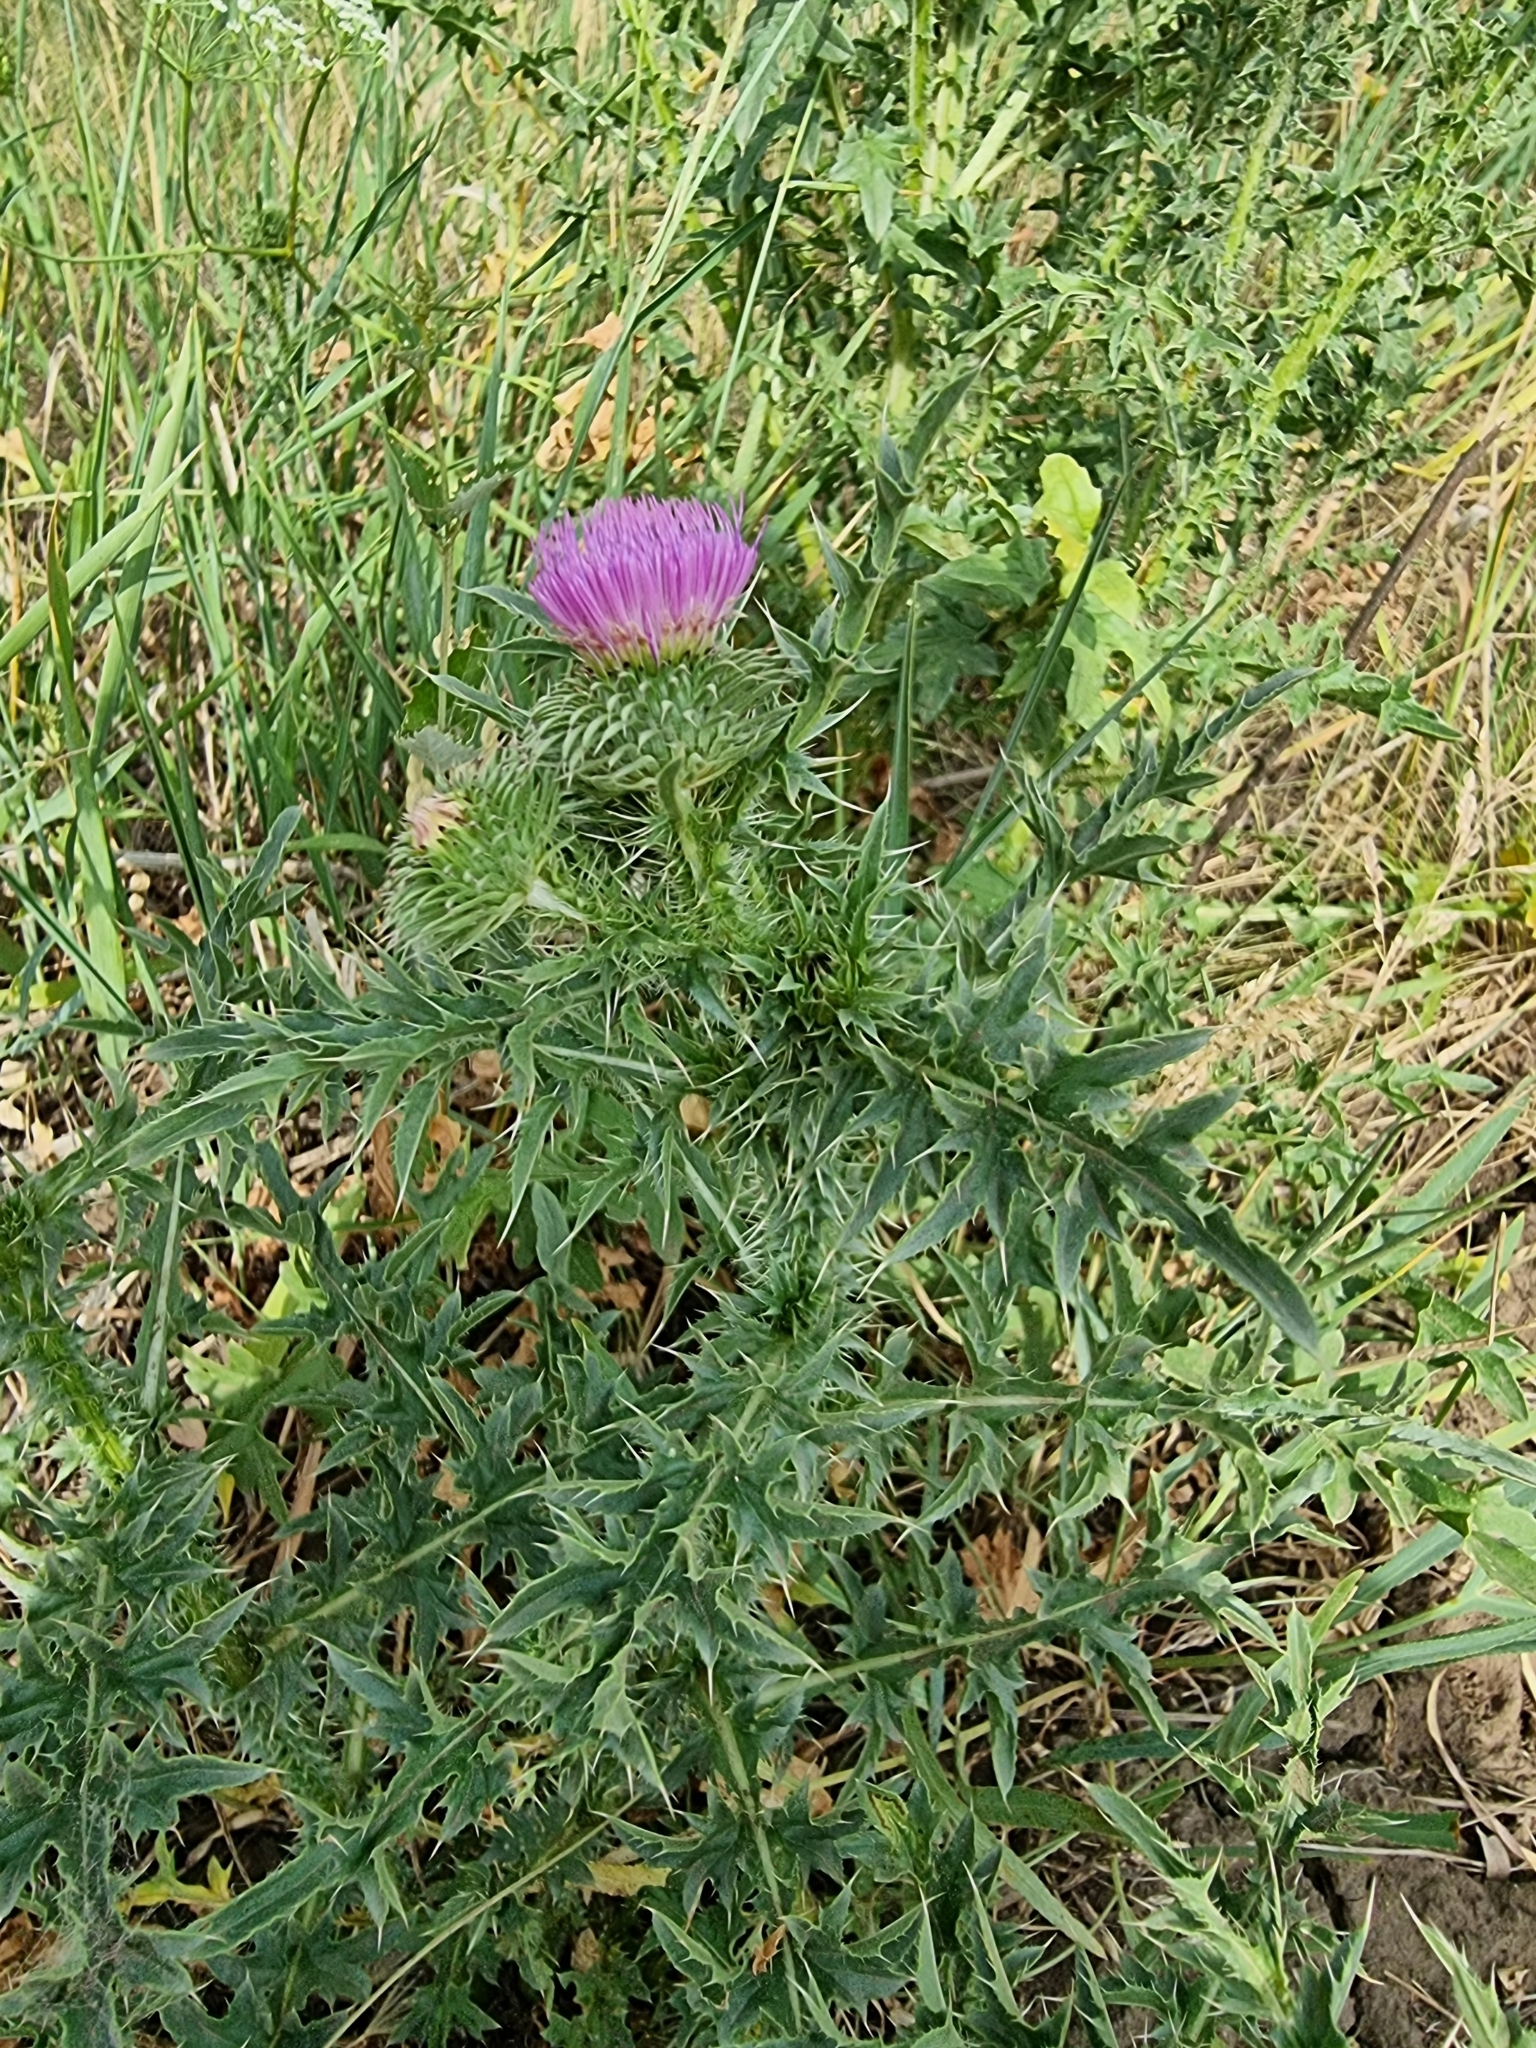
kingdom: Plantae
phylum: Tracheophyta
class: Magnoliopsida
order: Asterales
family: Asteraceae
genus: Carduus
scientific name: Carduus acanthoides
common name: Plumeless thistle
